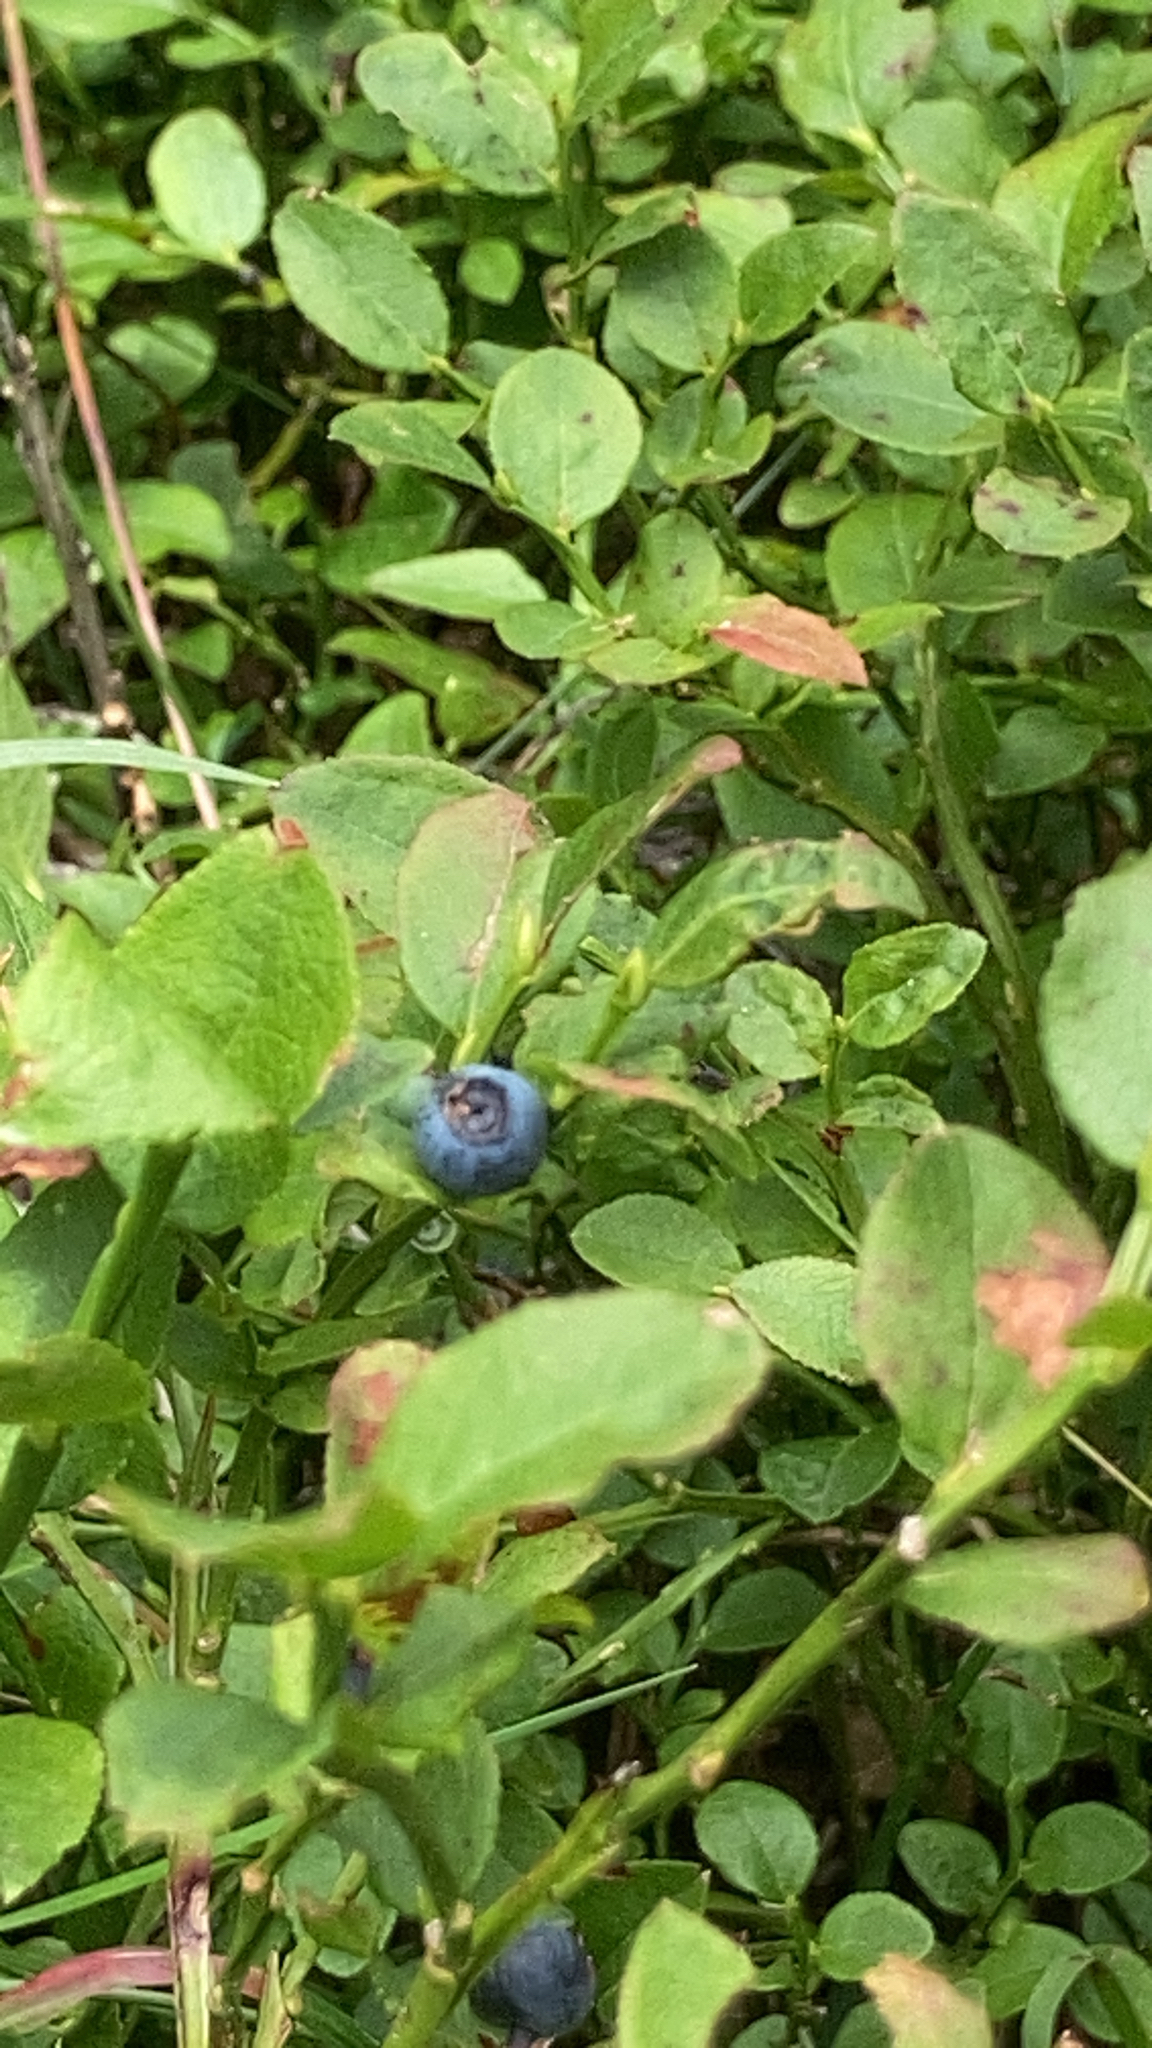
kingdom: Plantae
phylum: Tracheophyta
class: Magnoliopsida
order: Ericales
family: Ericaceae
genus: Vaccinium
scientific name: Vaccinium myrtillus
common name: Bilberry
